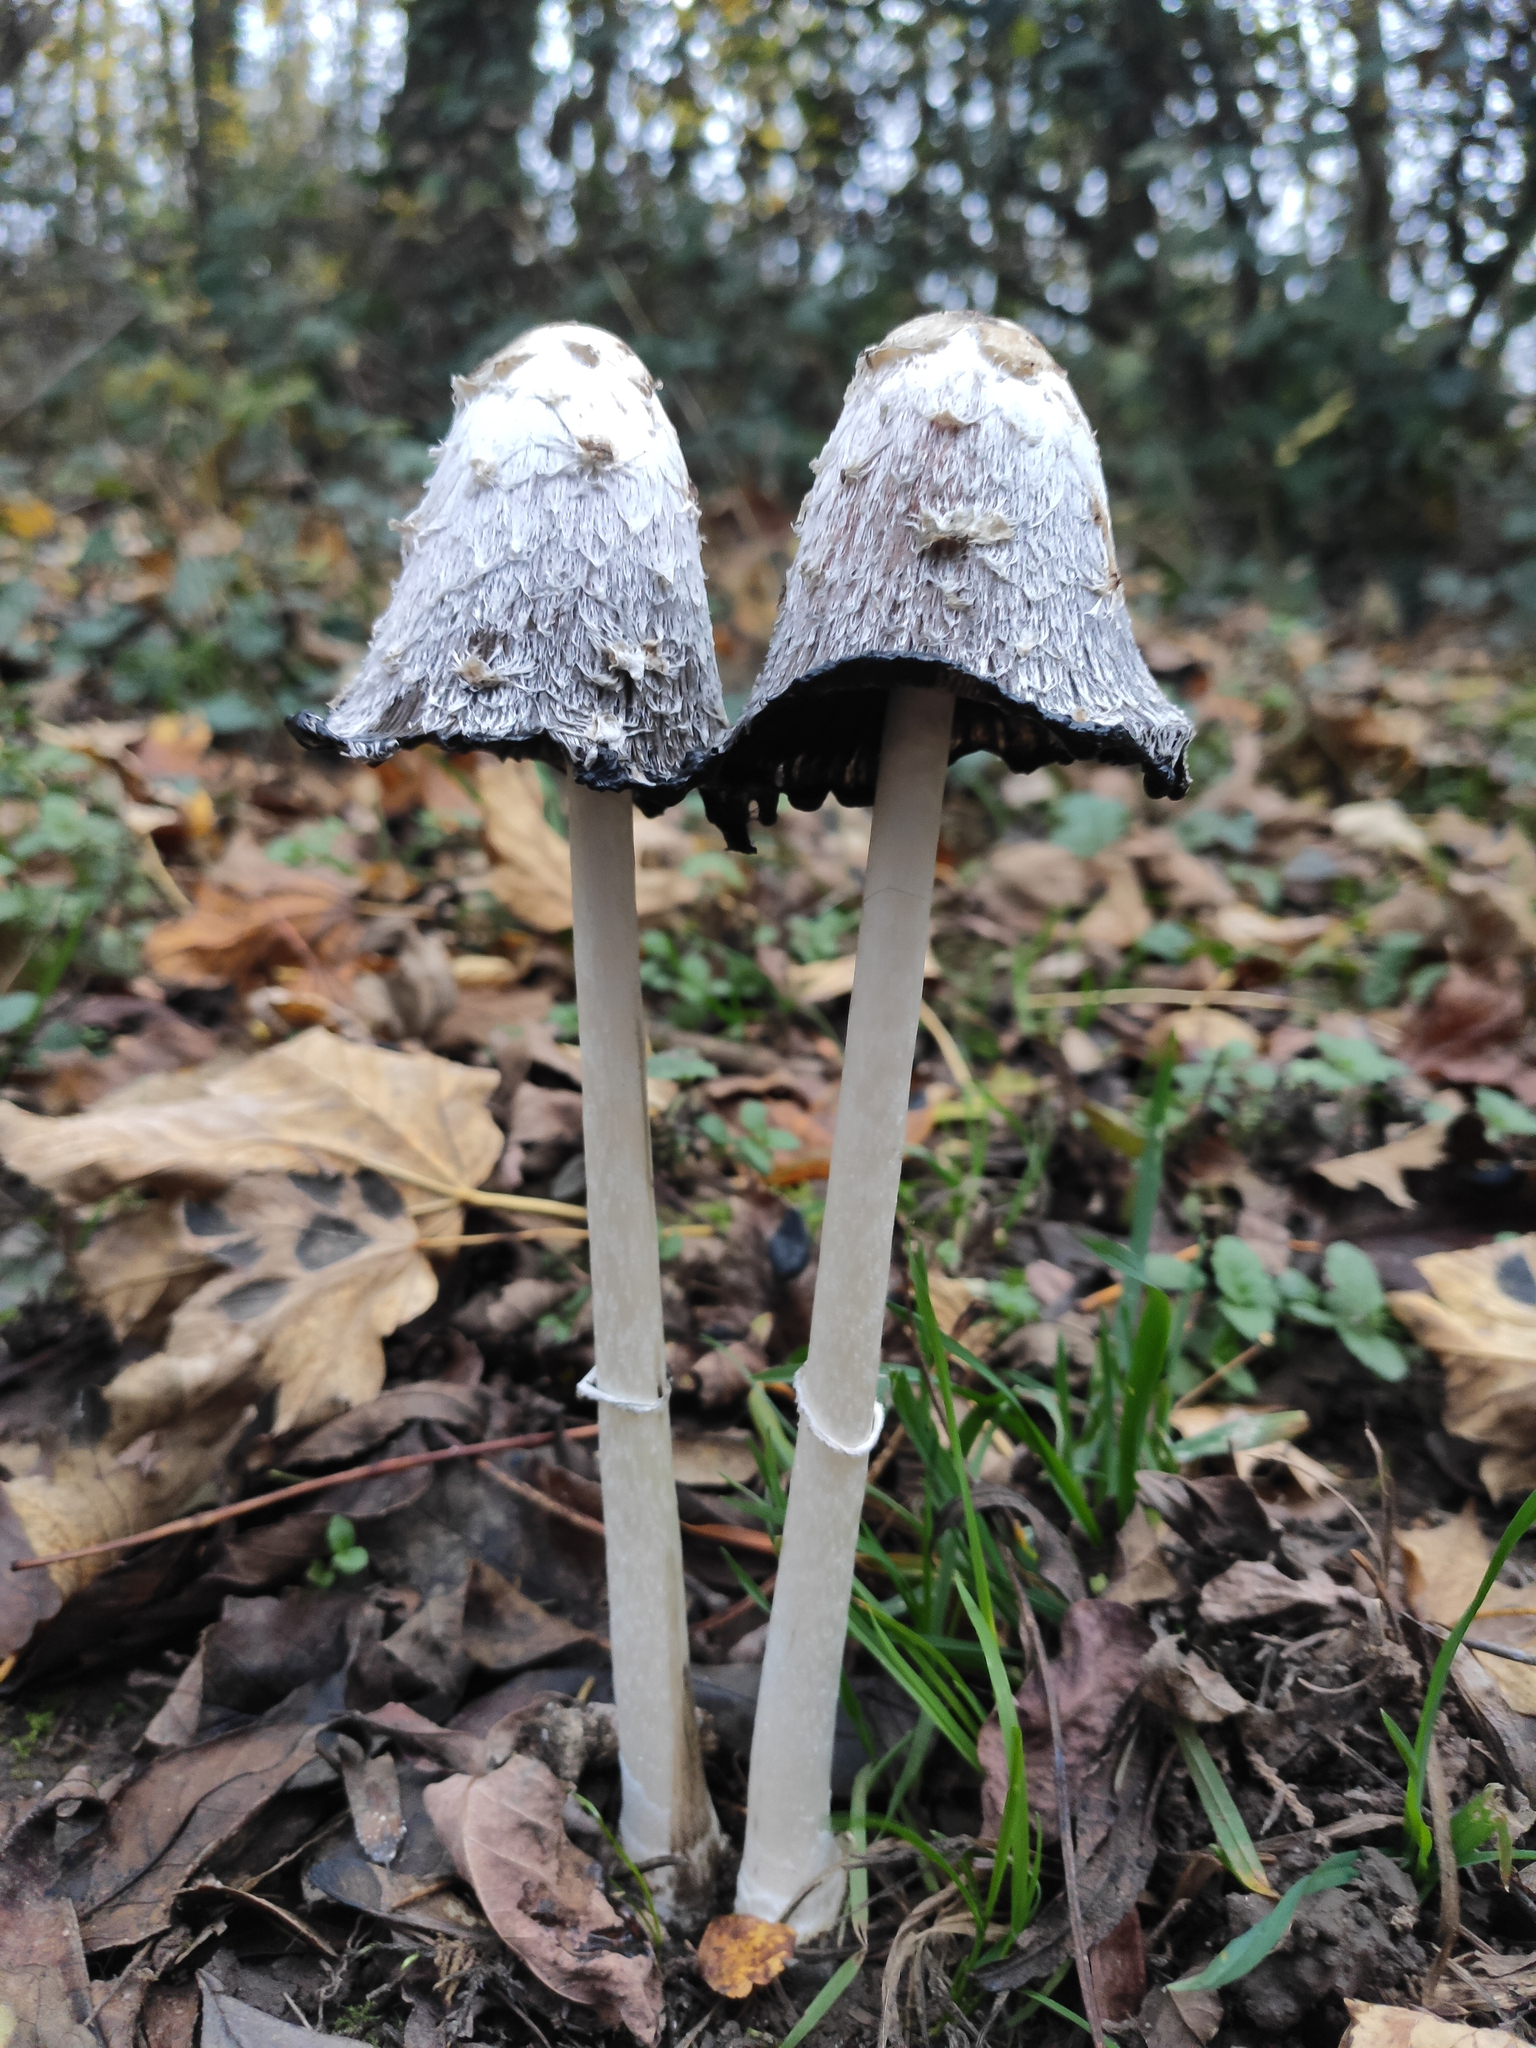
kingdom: Fungi
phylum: Basidiomycota
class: Agaricomycetes
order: Agaricales
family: Agaricaceae
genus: Coprinus
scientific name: Coprinus comatus
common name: Lawyer's wig
